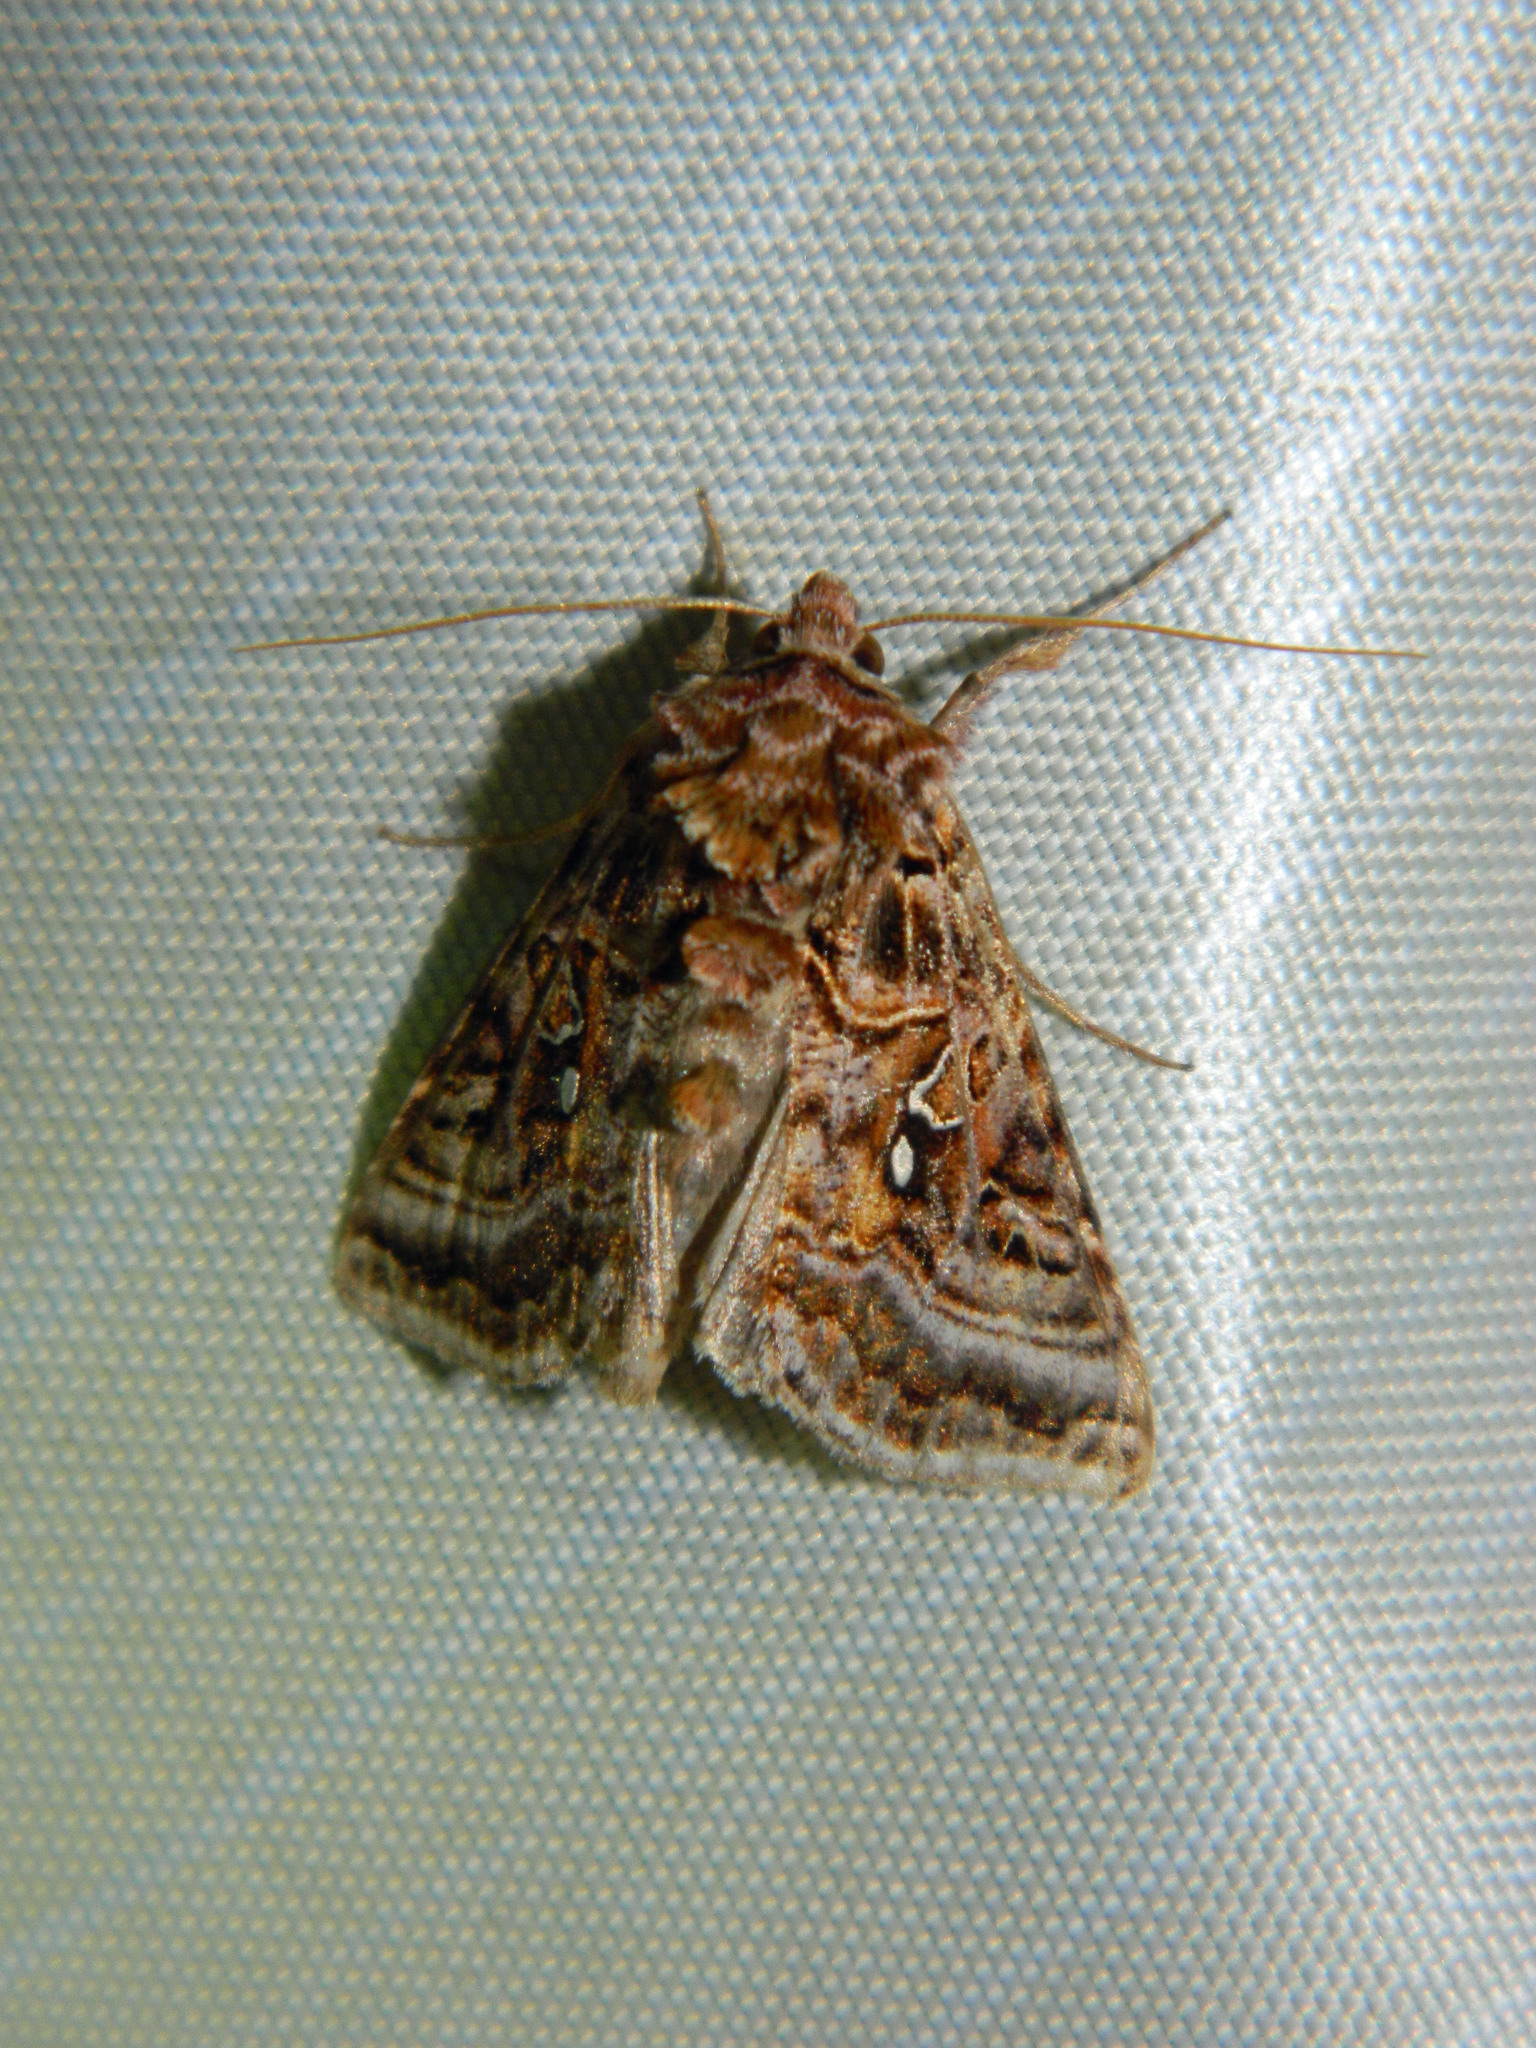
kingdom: Animalia
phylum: Arthropoda
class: Insecta
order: Lepidoptera
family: Noctuidae
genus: Autographa
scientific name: Autographa mappa
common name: Wavy chestnut y moth
